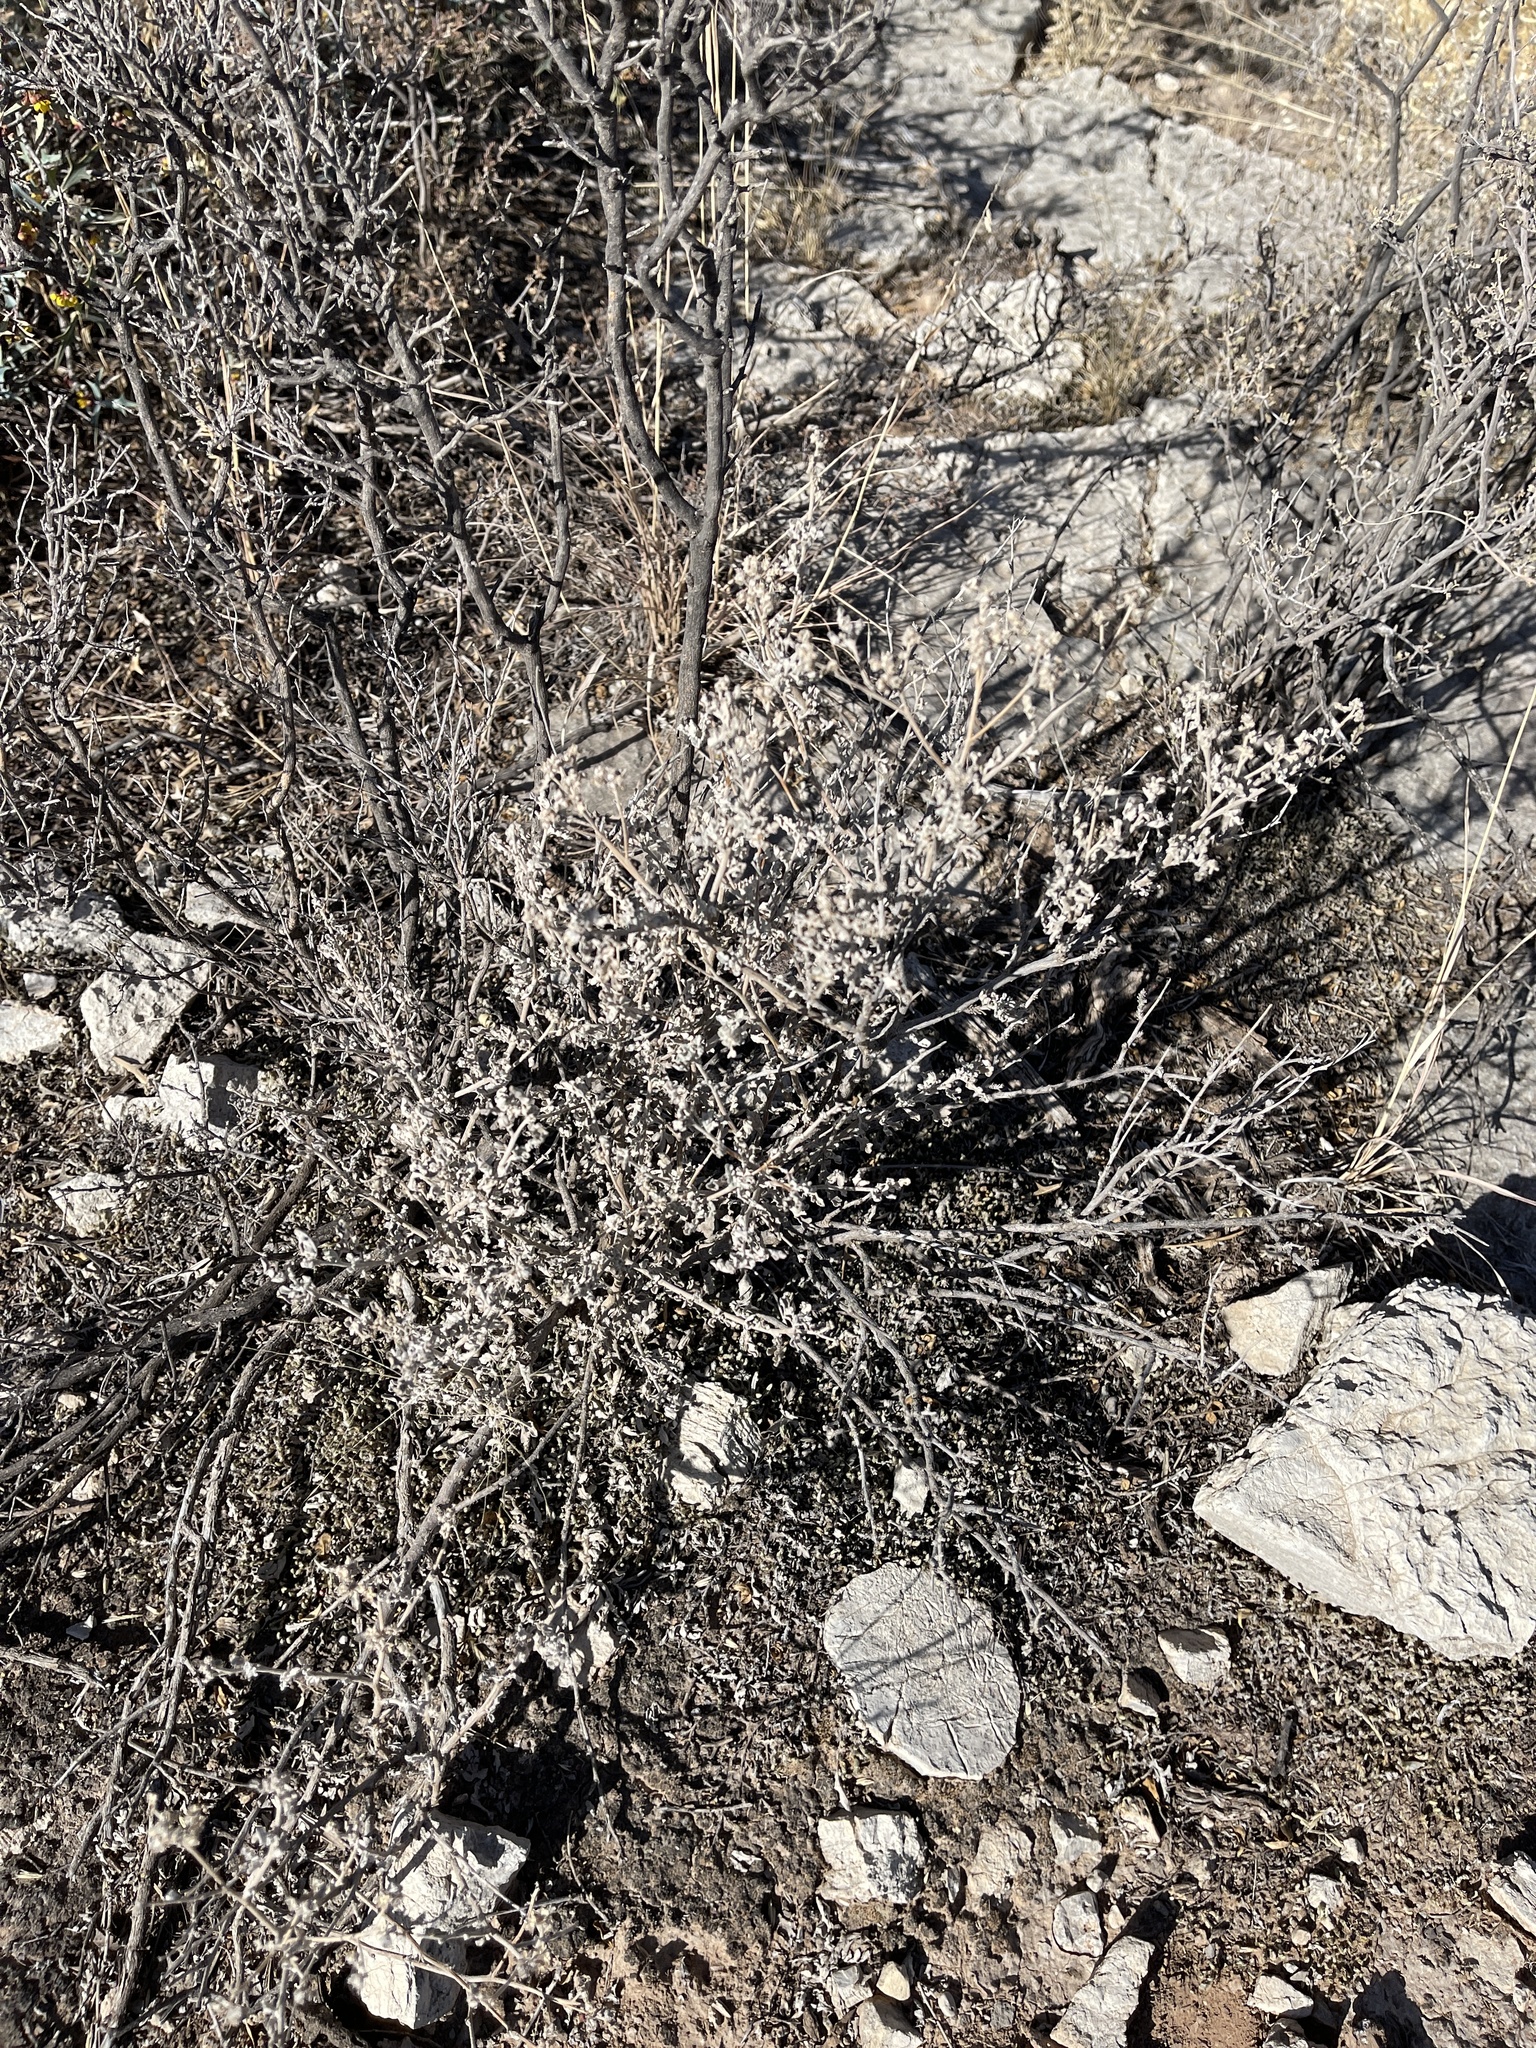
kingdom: Plantae
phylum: Tracheophyta
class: Magnoliopsida
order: Asterales
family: Asteraceae
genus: Parthenium
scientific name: Parthenium incanum
